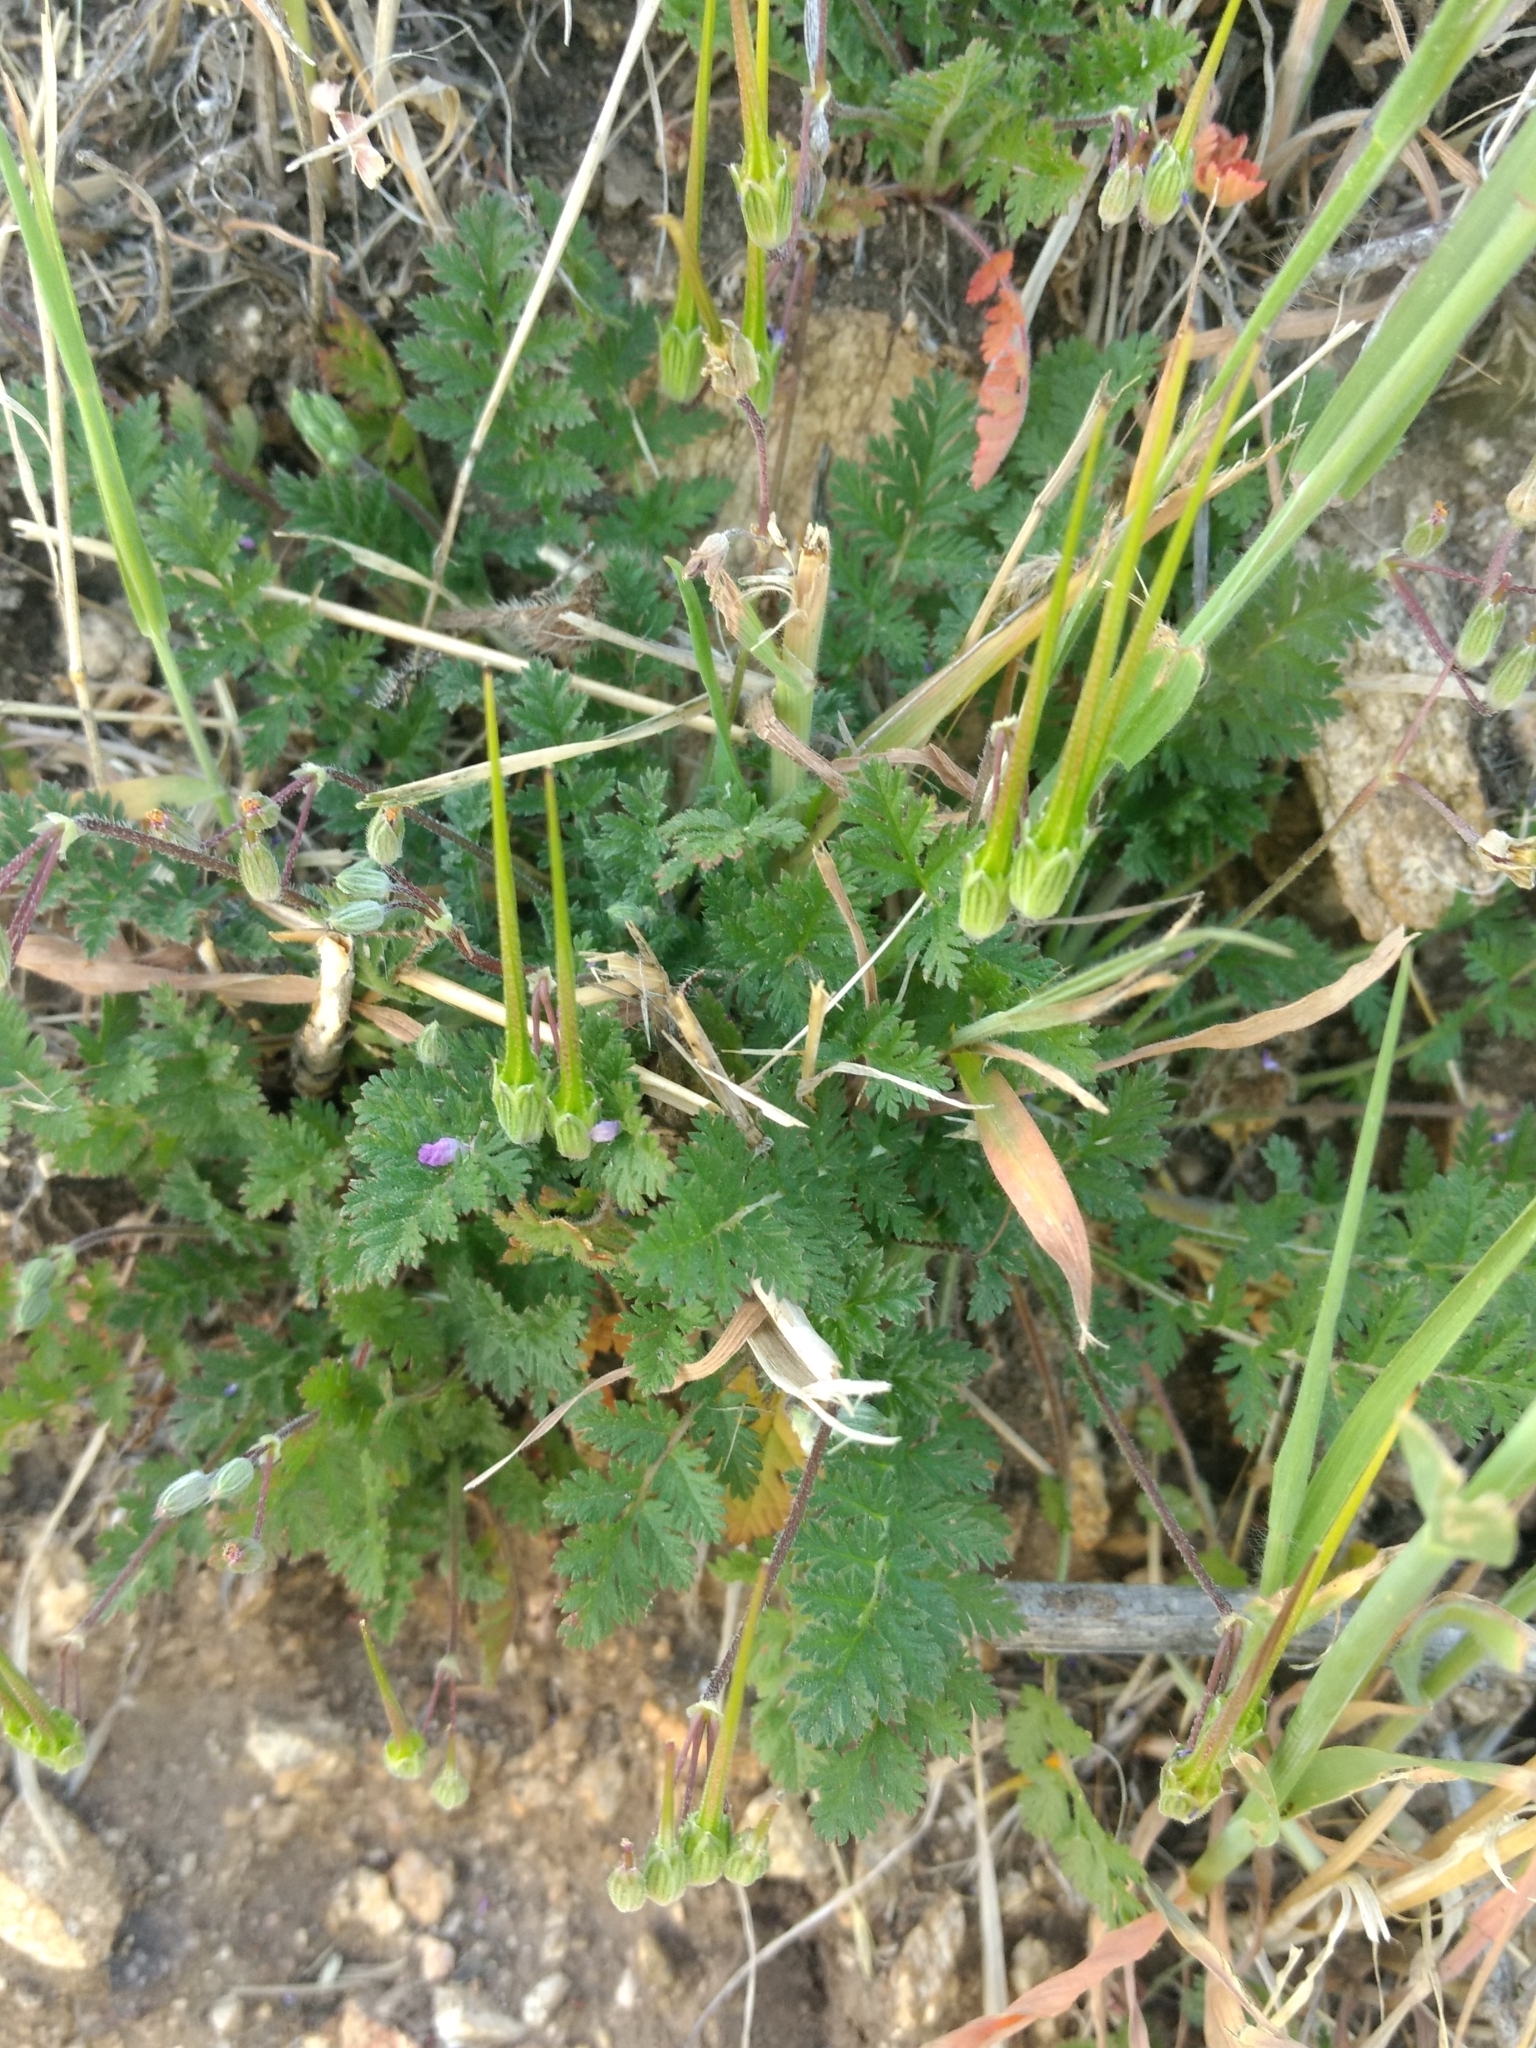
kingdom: Plantae
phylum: Tracheophyta
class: Magnoliopsida
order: Geraniales
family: Geraniaceae
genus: Erodium
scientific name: Erodium cicutarium
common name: Common stork's-bill
